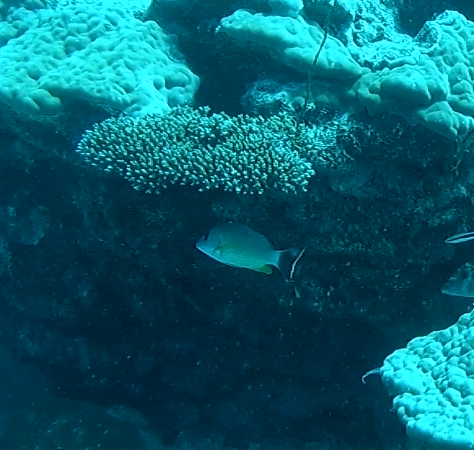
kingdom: Animalia
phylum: Chordata
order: Perciformes
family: Lutjanidae
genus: Lutjanus
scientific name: Lutjanus fulvus
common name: Blacktail snapper
